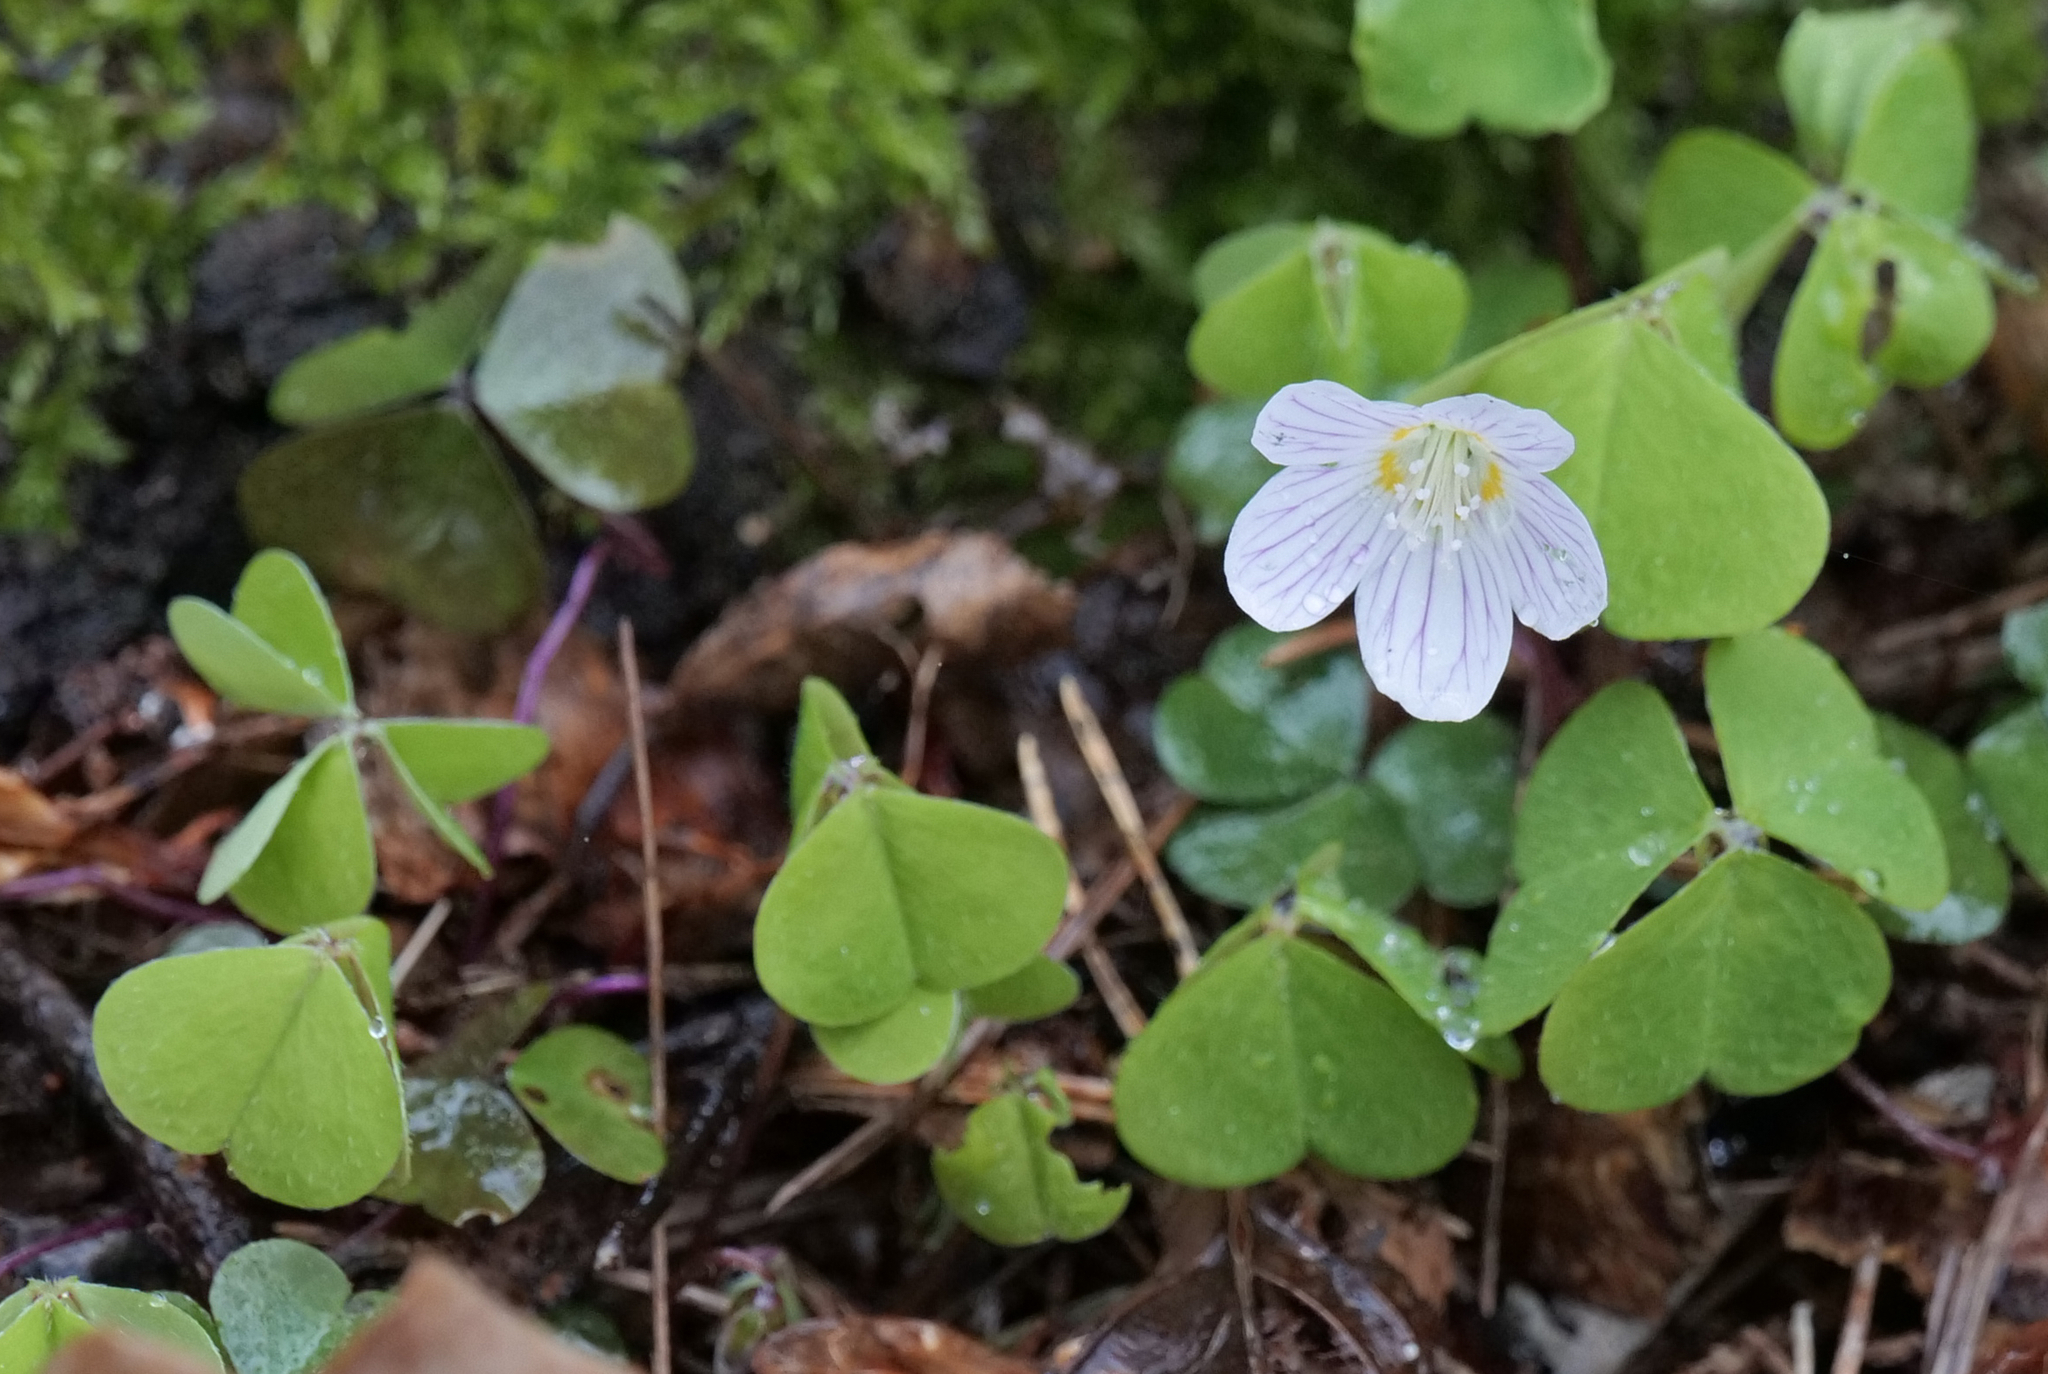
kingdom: Plantae
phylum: Tracheophyta
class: Magnoliopsida
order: Oxalidales
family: Oxalidaceae
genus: Oxalis
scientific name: Oxalis acetosella
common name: Wood-sorrel
